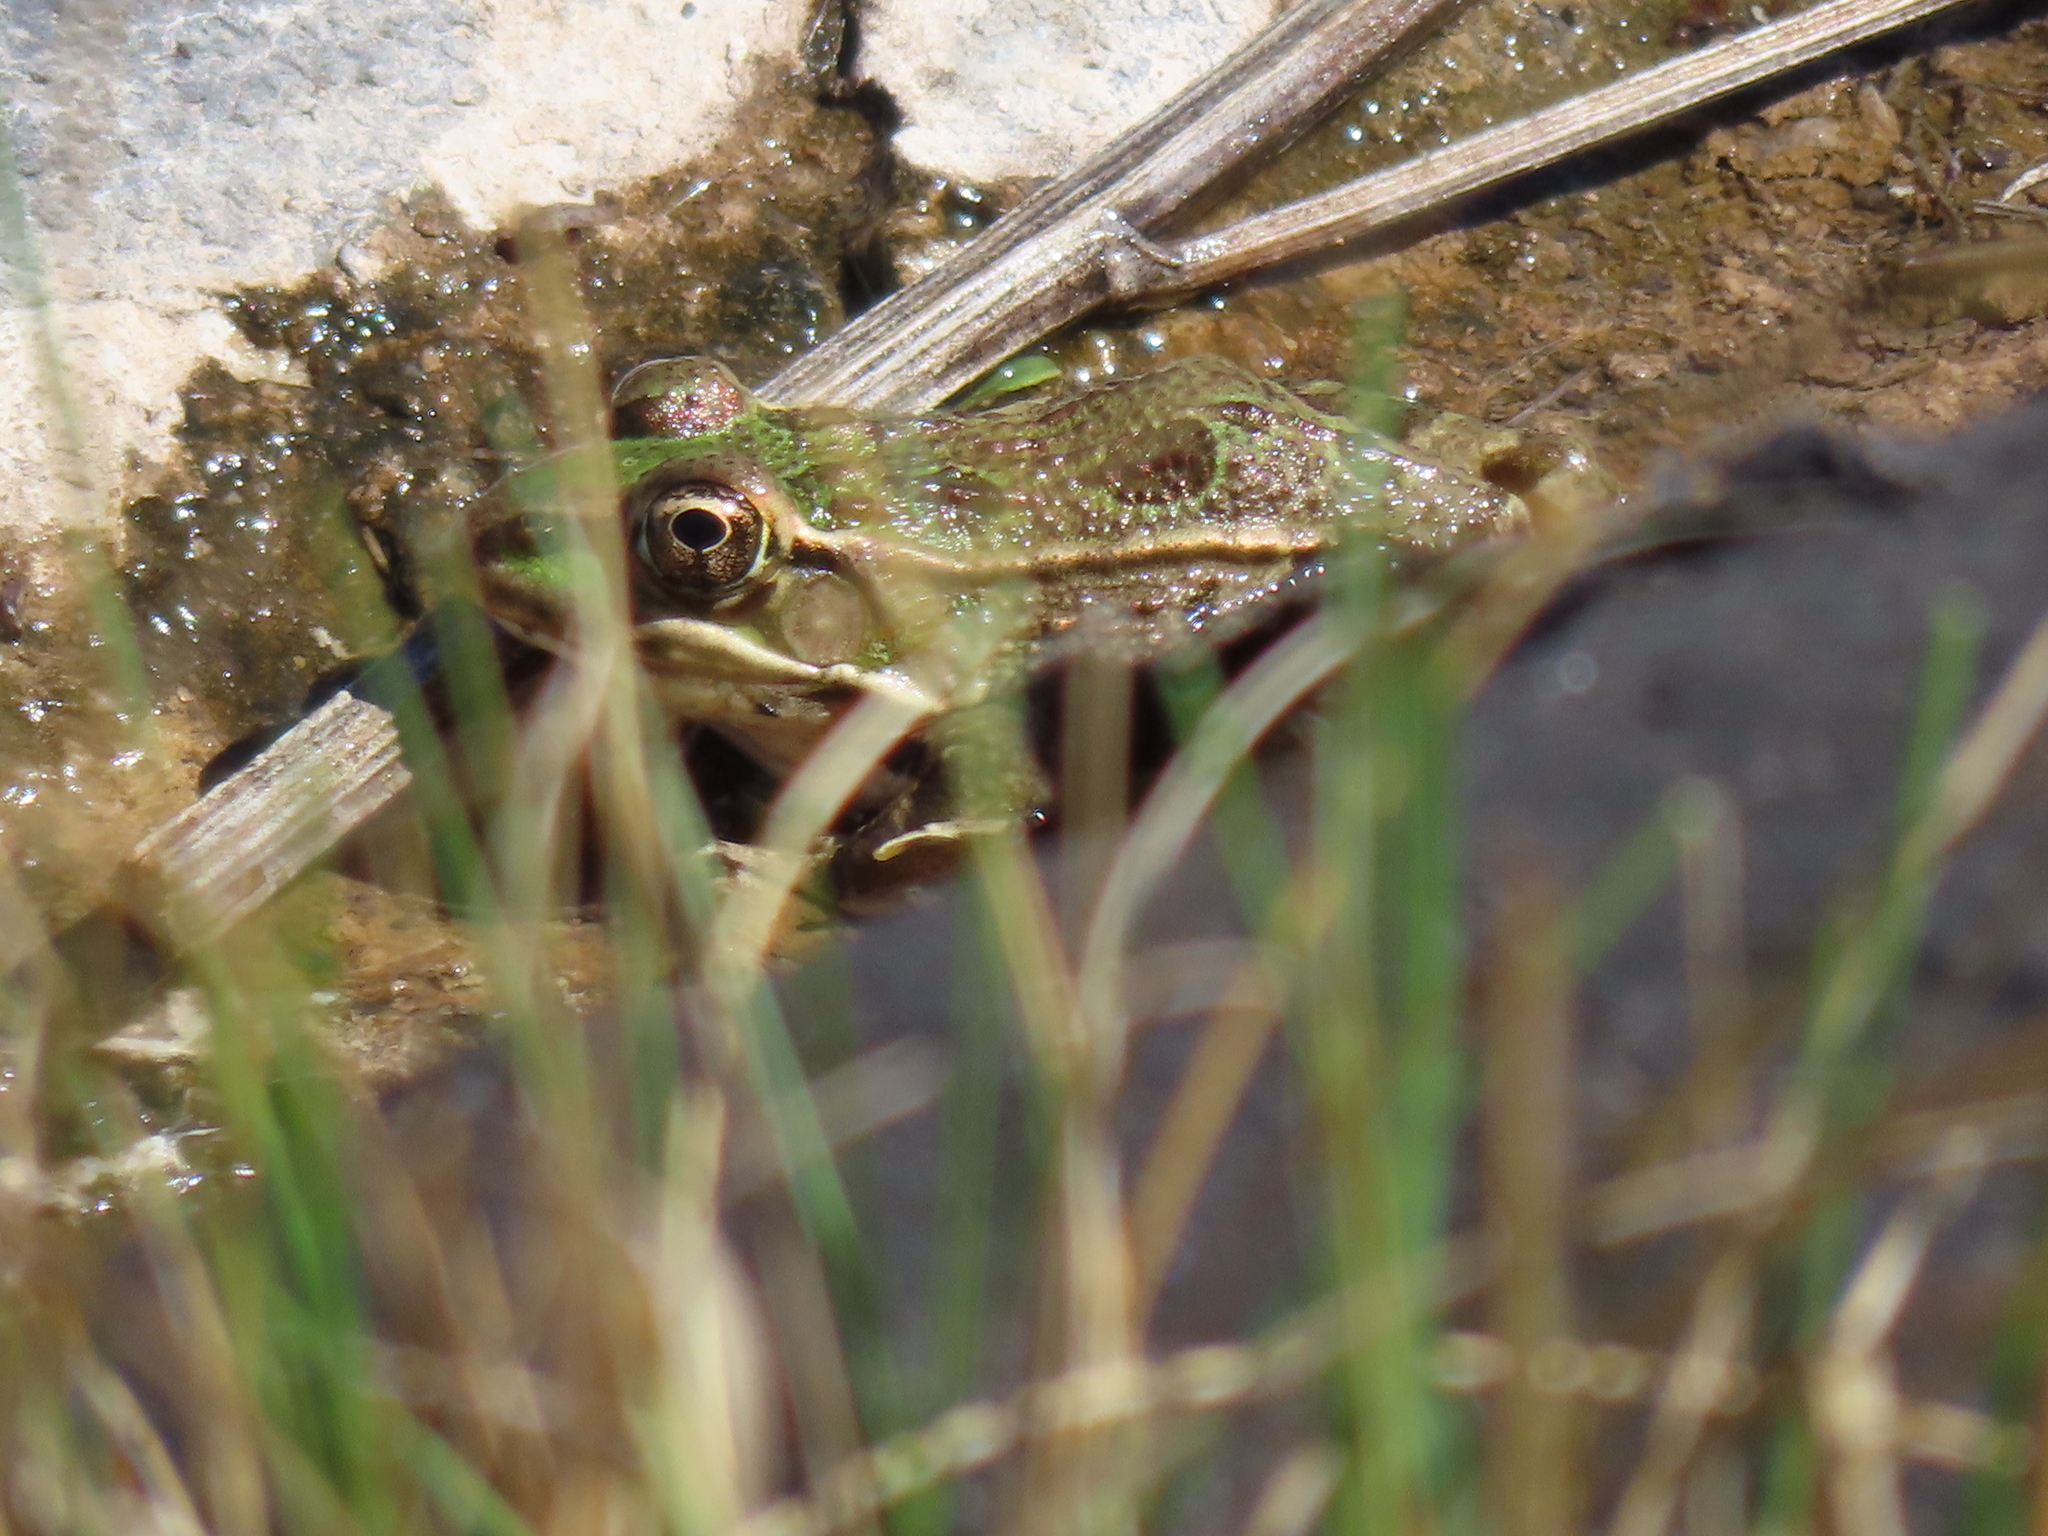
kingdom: Animalia
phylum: Chordata
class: Amphibia
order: Anura
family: Ranidae
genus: Lithobates
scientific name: Lithobates berlandieri
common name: Rio grande leopard frog
